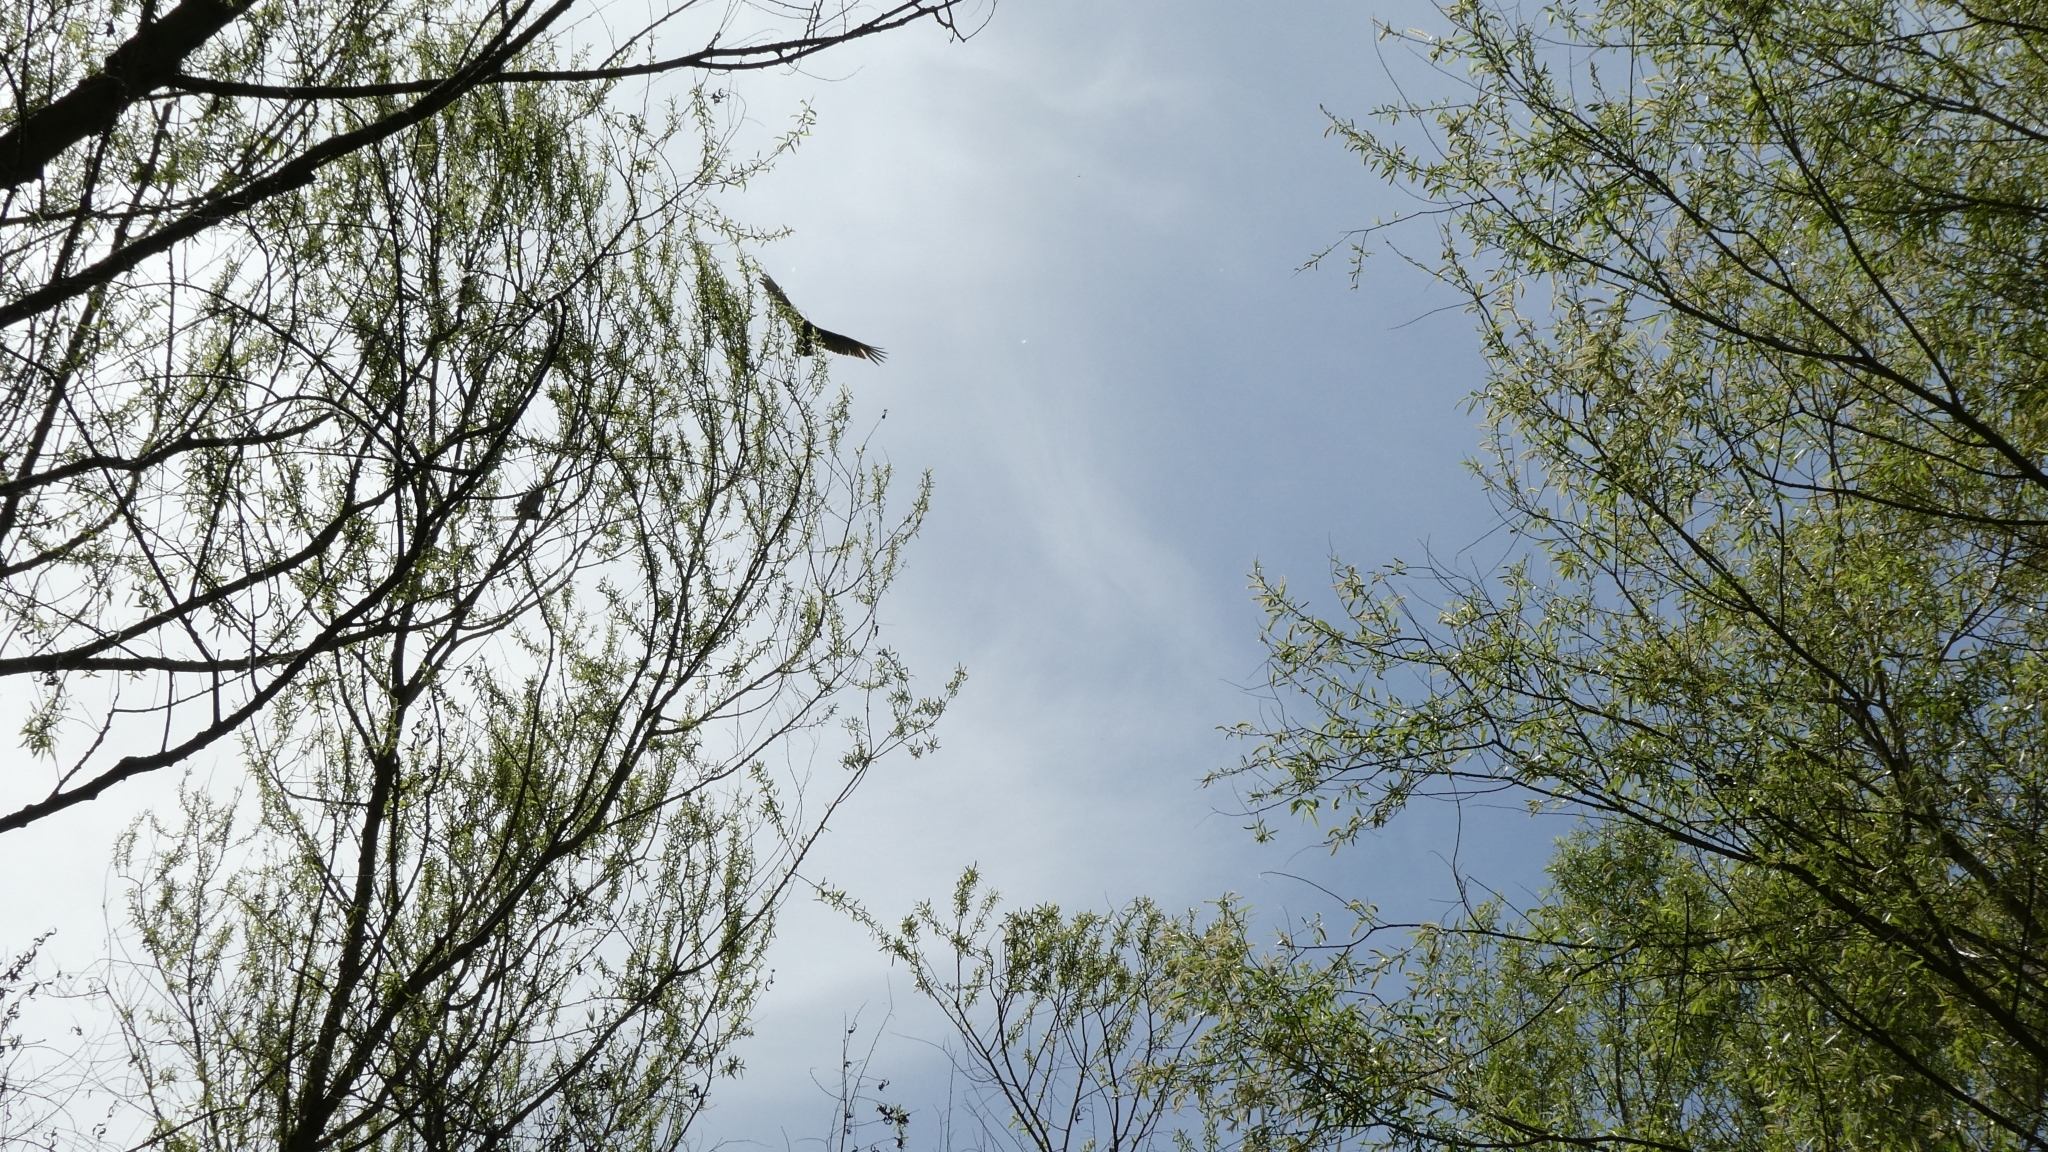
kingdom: Animalia
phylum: Chordata
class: Aves
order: Accipitriformes
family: Cathartidae
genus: Cathartes
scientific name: Cathartes aura
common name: Turkey vulture
